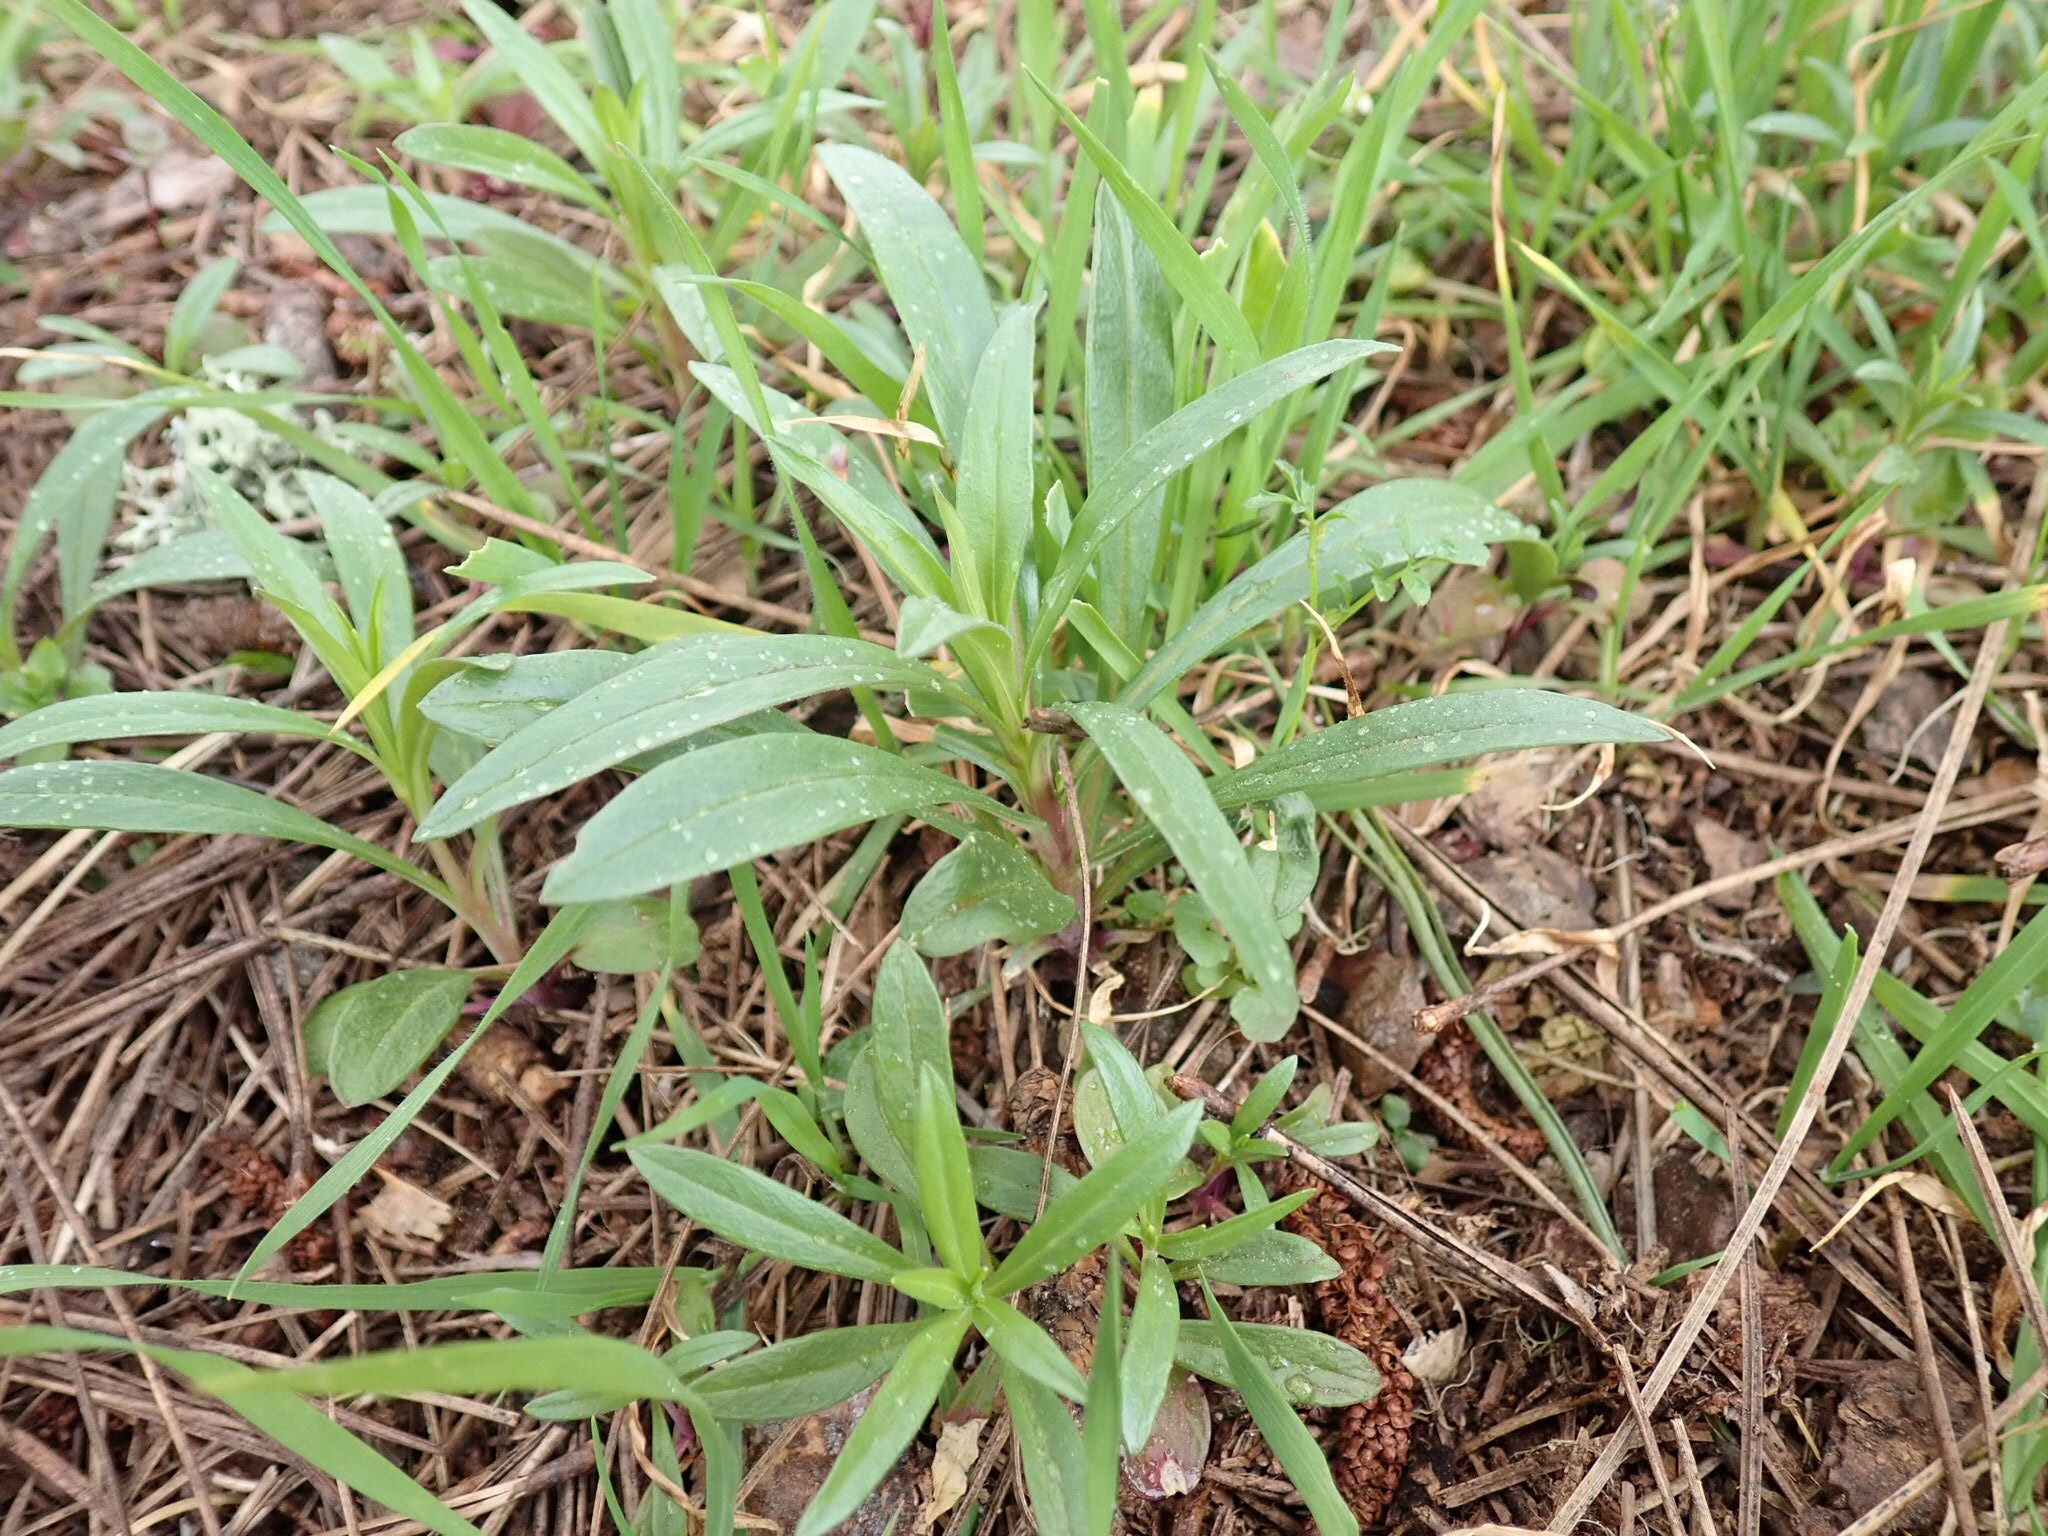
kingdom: Plantae
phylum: Tracheophyta
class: Magnoliopsida
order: Ericales
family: Polemoniaceae
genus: Collomia
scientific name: Collomia grandiflora
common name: California strawflower
